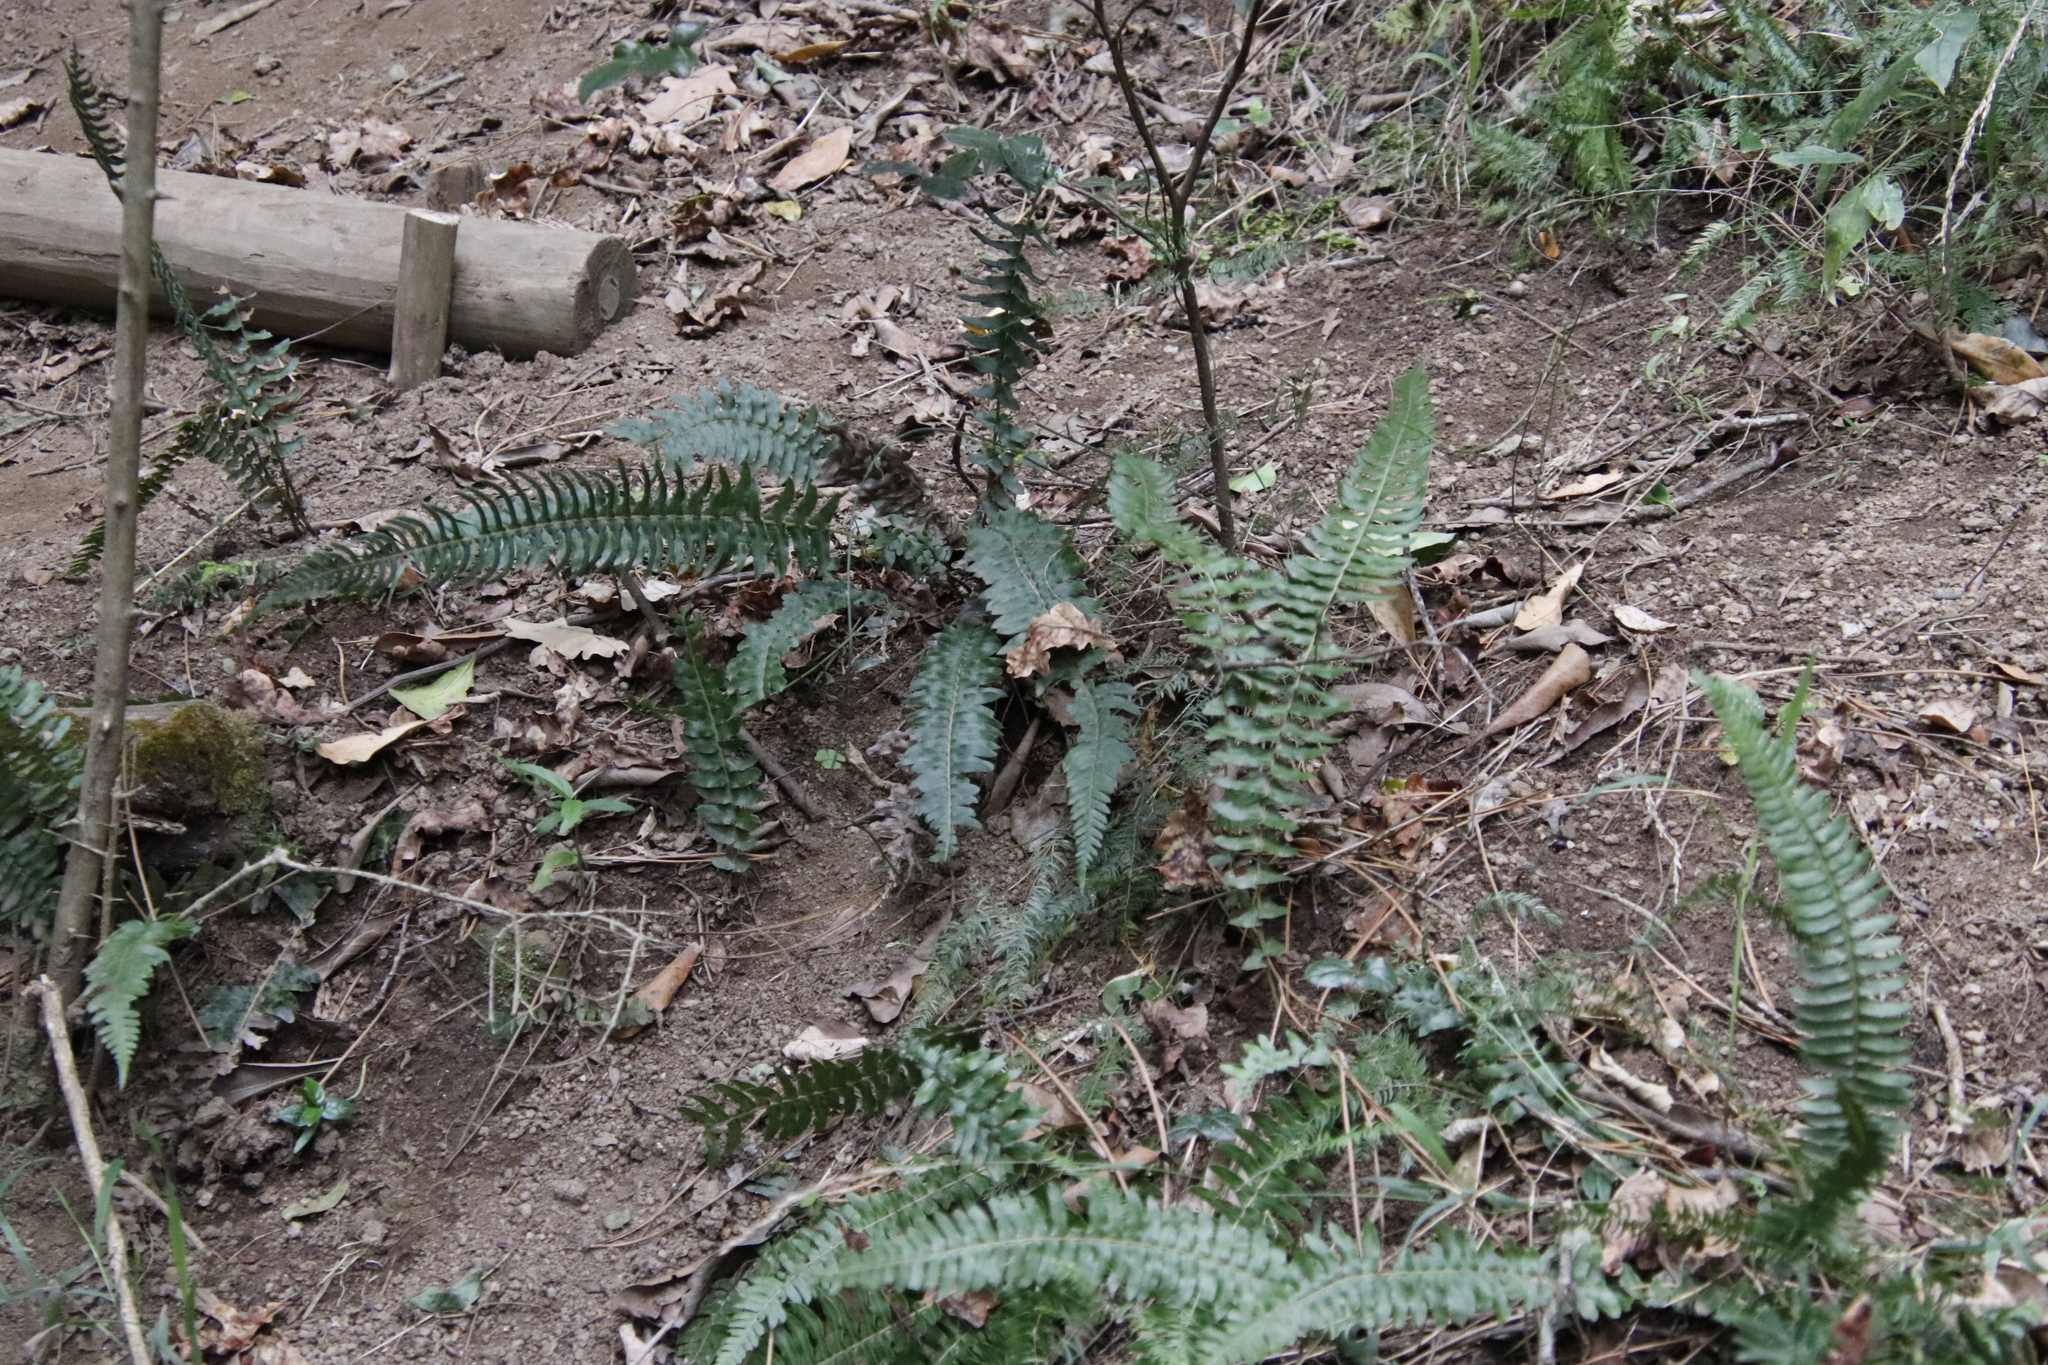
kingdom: Plantae
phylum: Tracheophyta
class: Polypodiopsida
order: Polypodiales
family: Blechnaceae
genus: Blechnum
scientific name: Blechnum punctulatum
